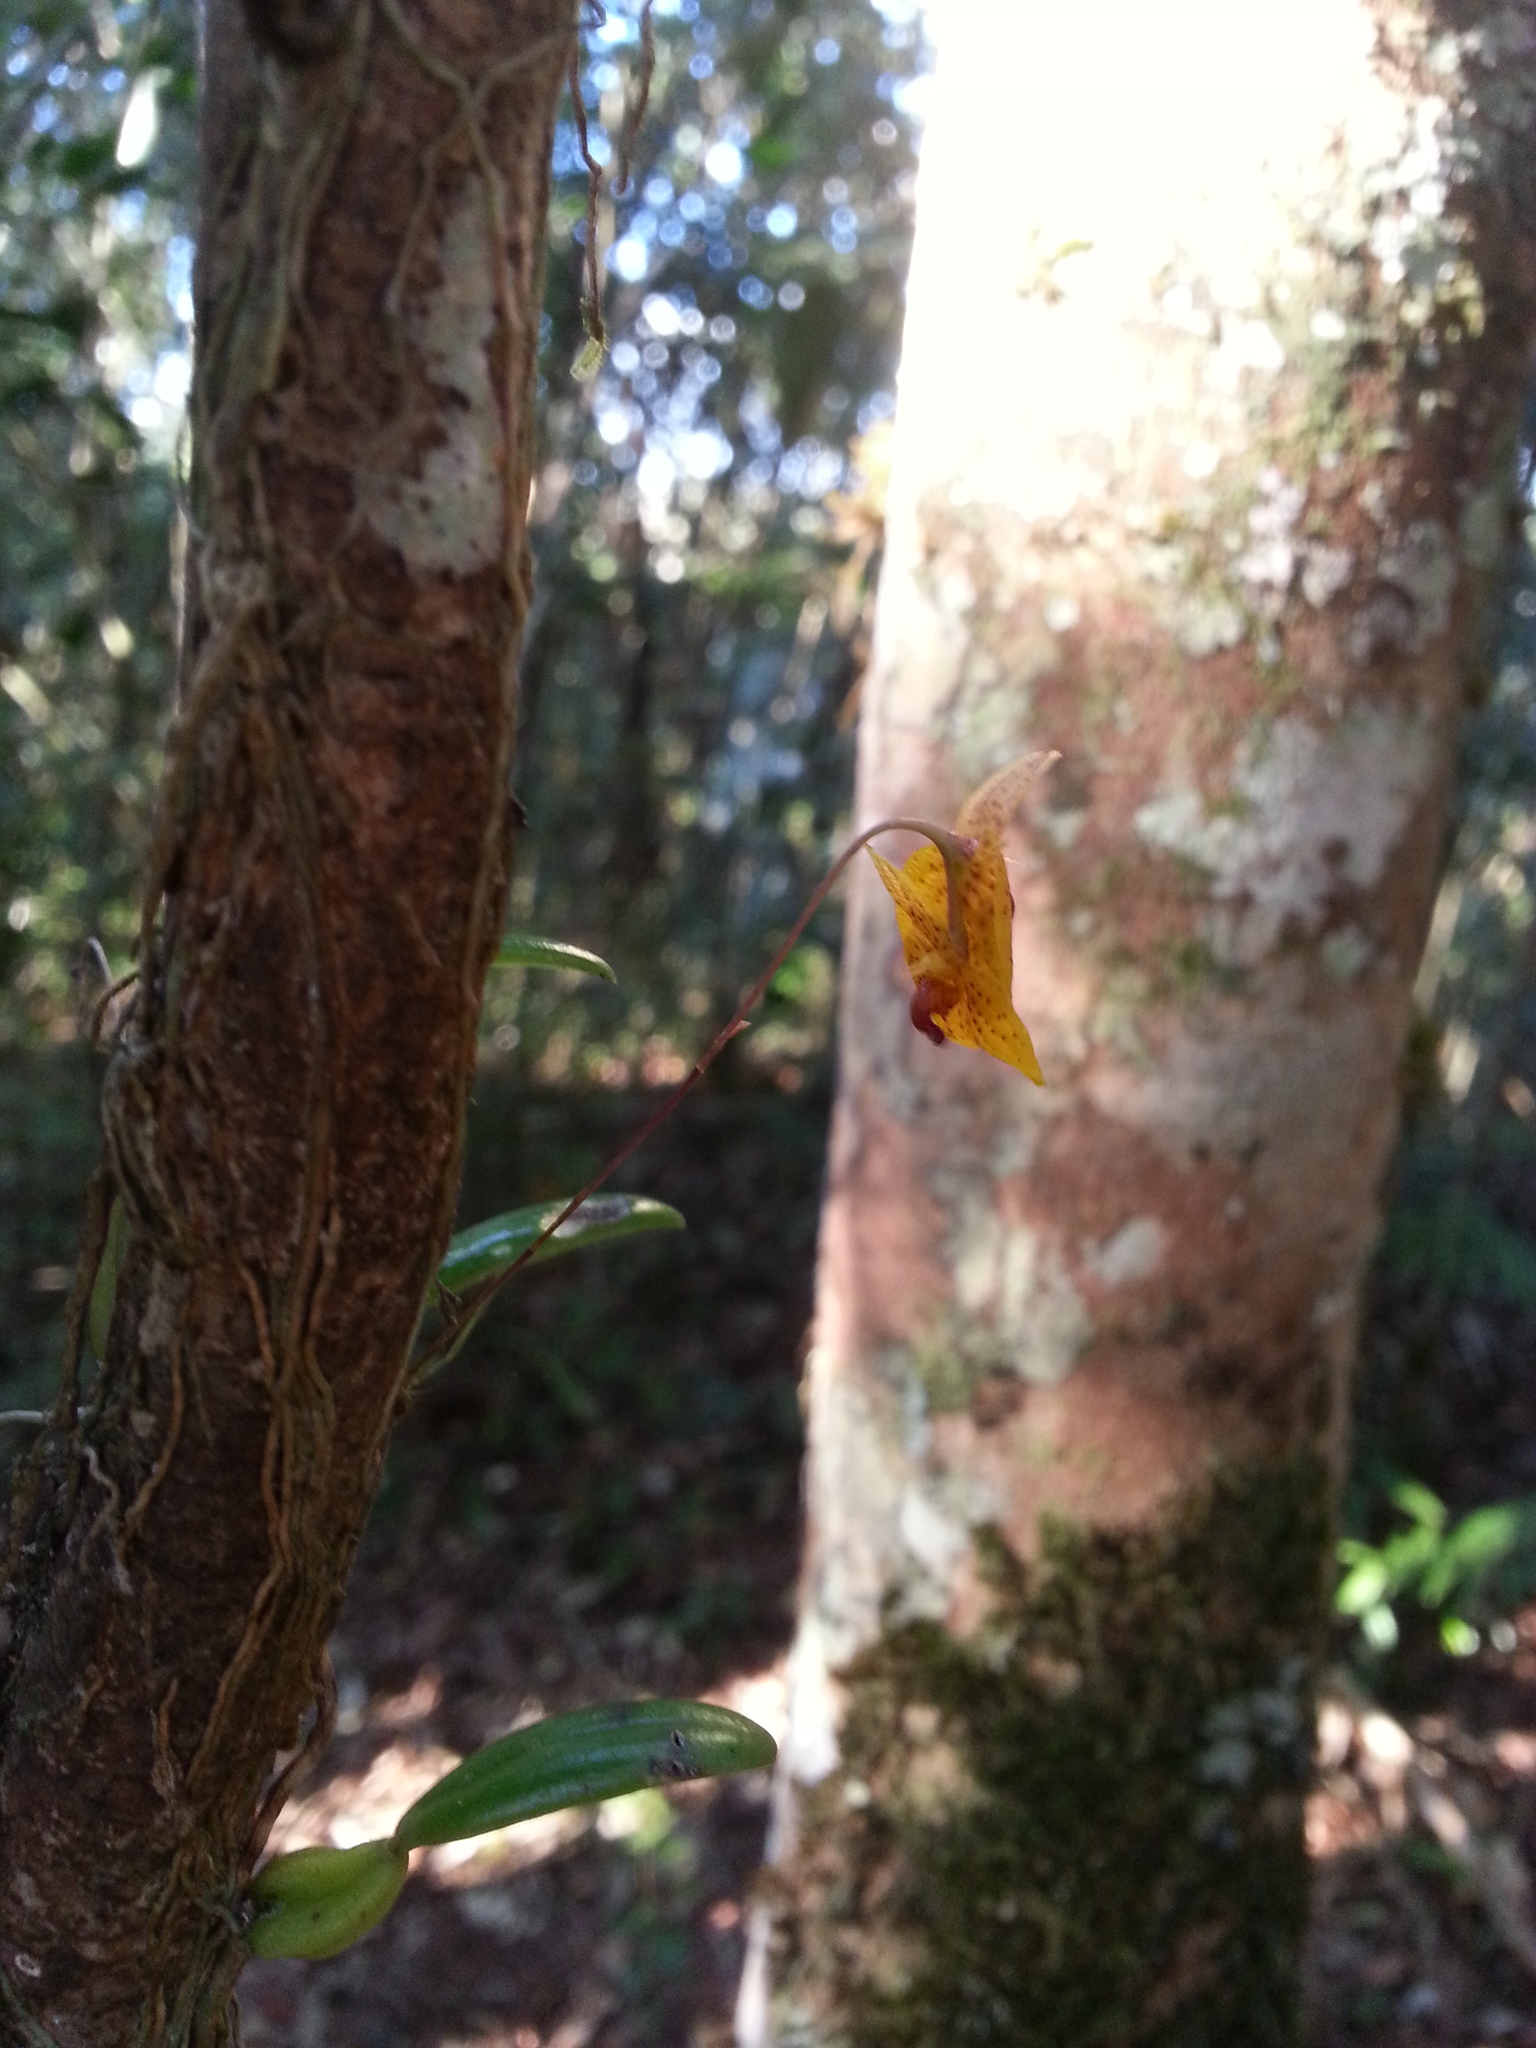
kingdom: Plantae
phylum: Tracheophyta
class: Liliopsida
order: Asparagales
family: Orchidaceae
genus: Bulbophyllum
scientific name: Bulbophyllum analamazoatrae
